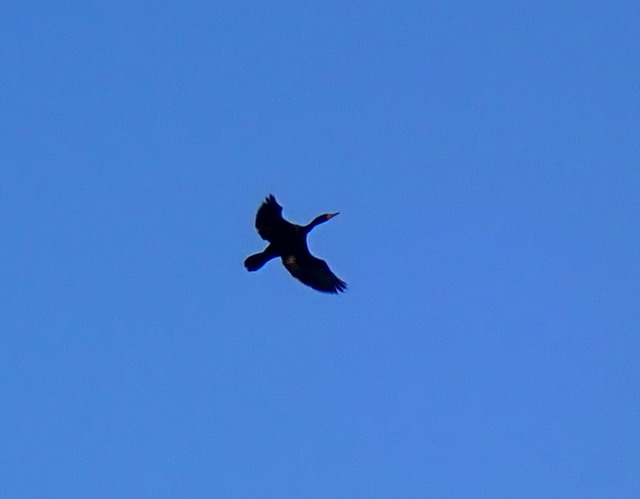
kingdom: Animalia
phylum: Chordata
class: Aves
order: Suliformes
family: Phalacrocoracidae
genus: Phalacrocorax
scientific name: Phalacrocorax auritus
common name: Double-crested cormorant
